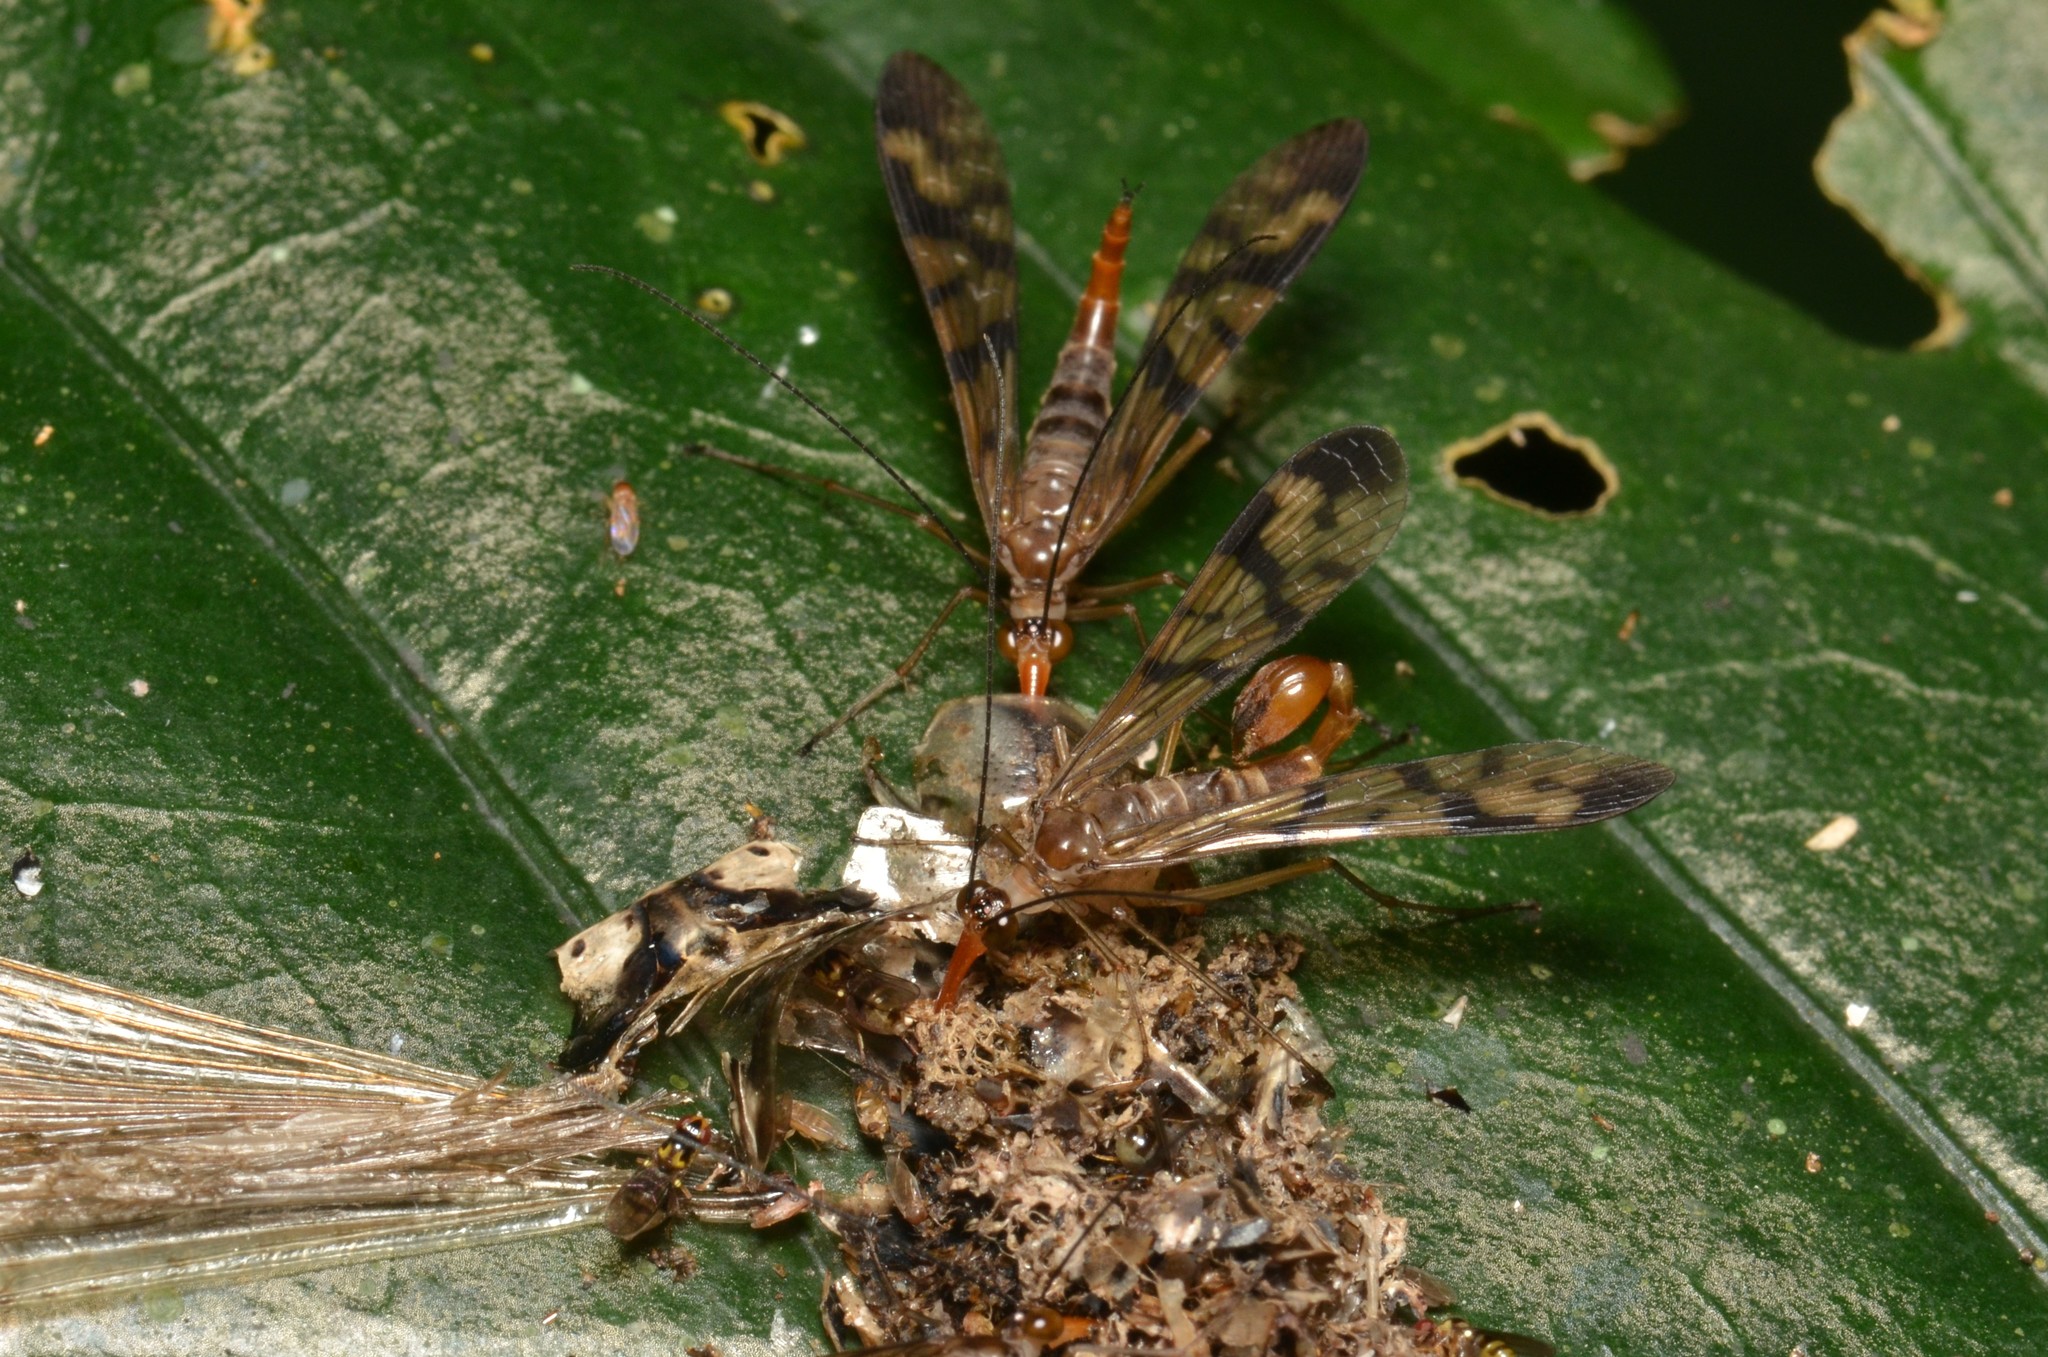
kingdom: Animalia
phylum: Arthropoda
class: Insecta
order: Mecoptera
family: Panorpidae
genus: Neopanorpa
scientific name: Neopanorpa vietnamensis
